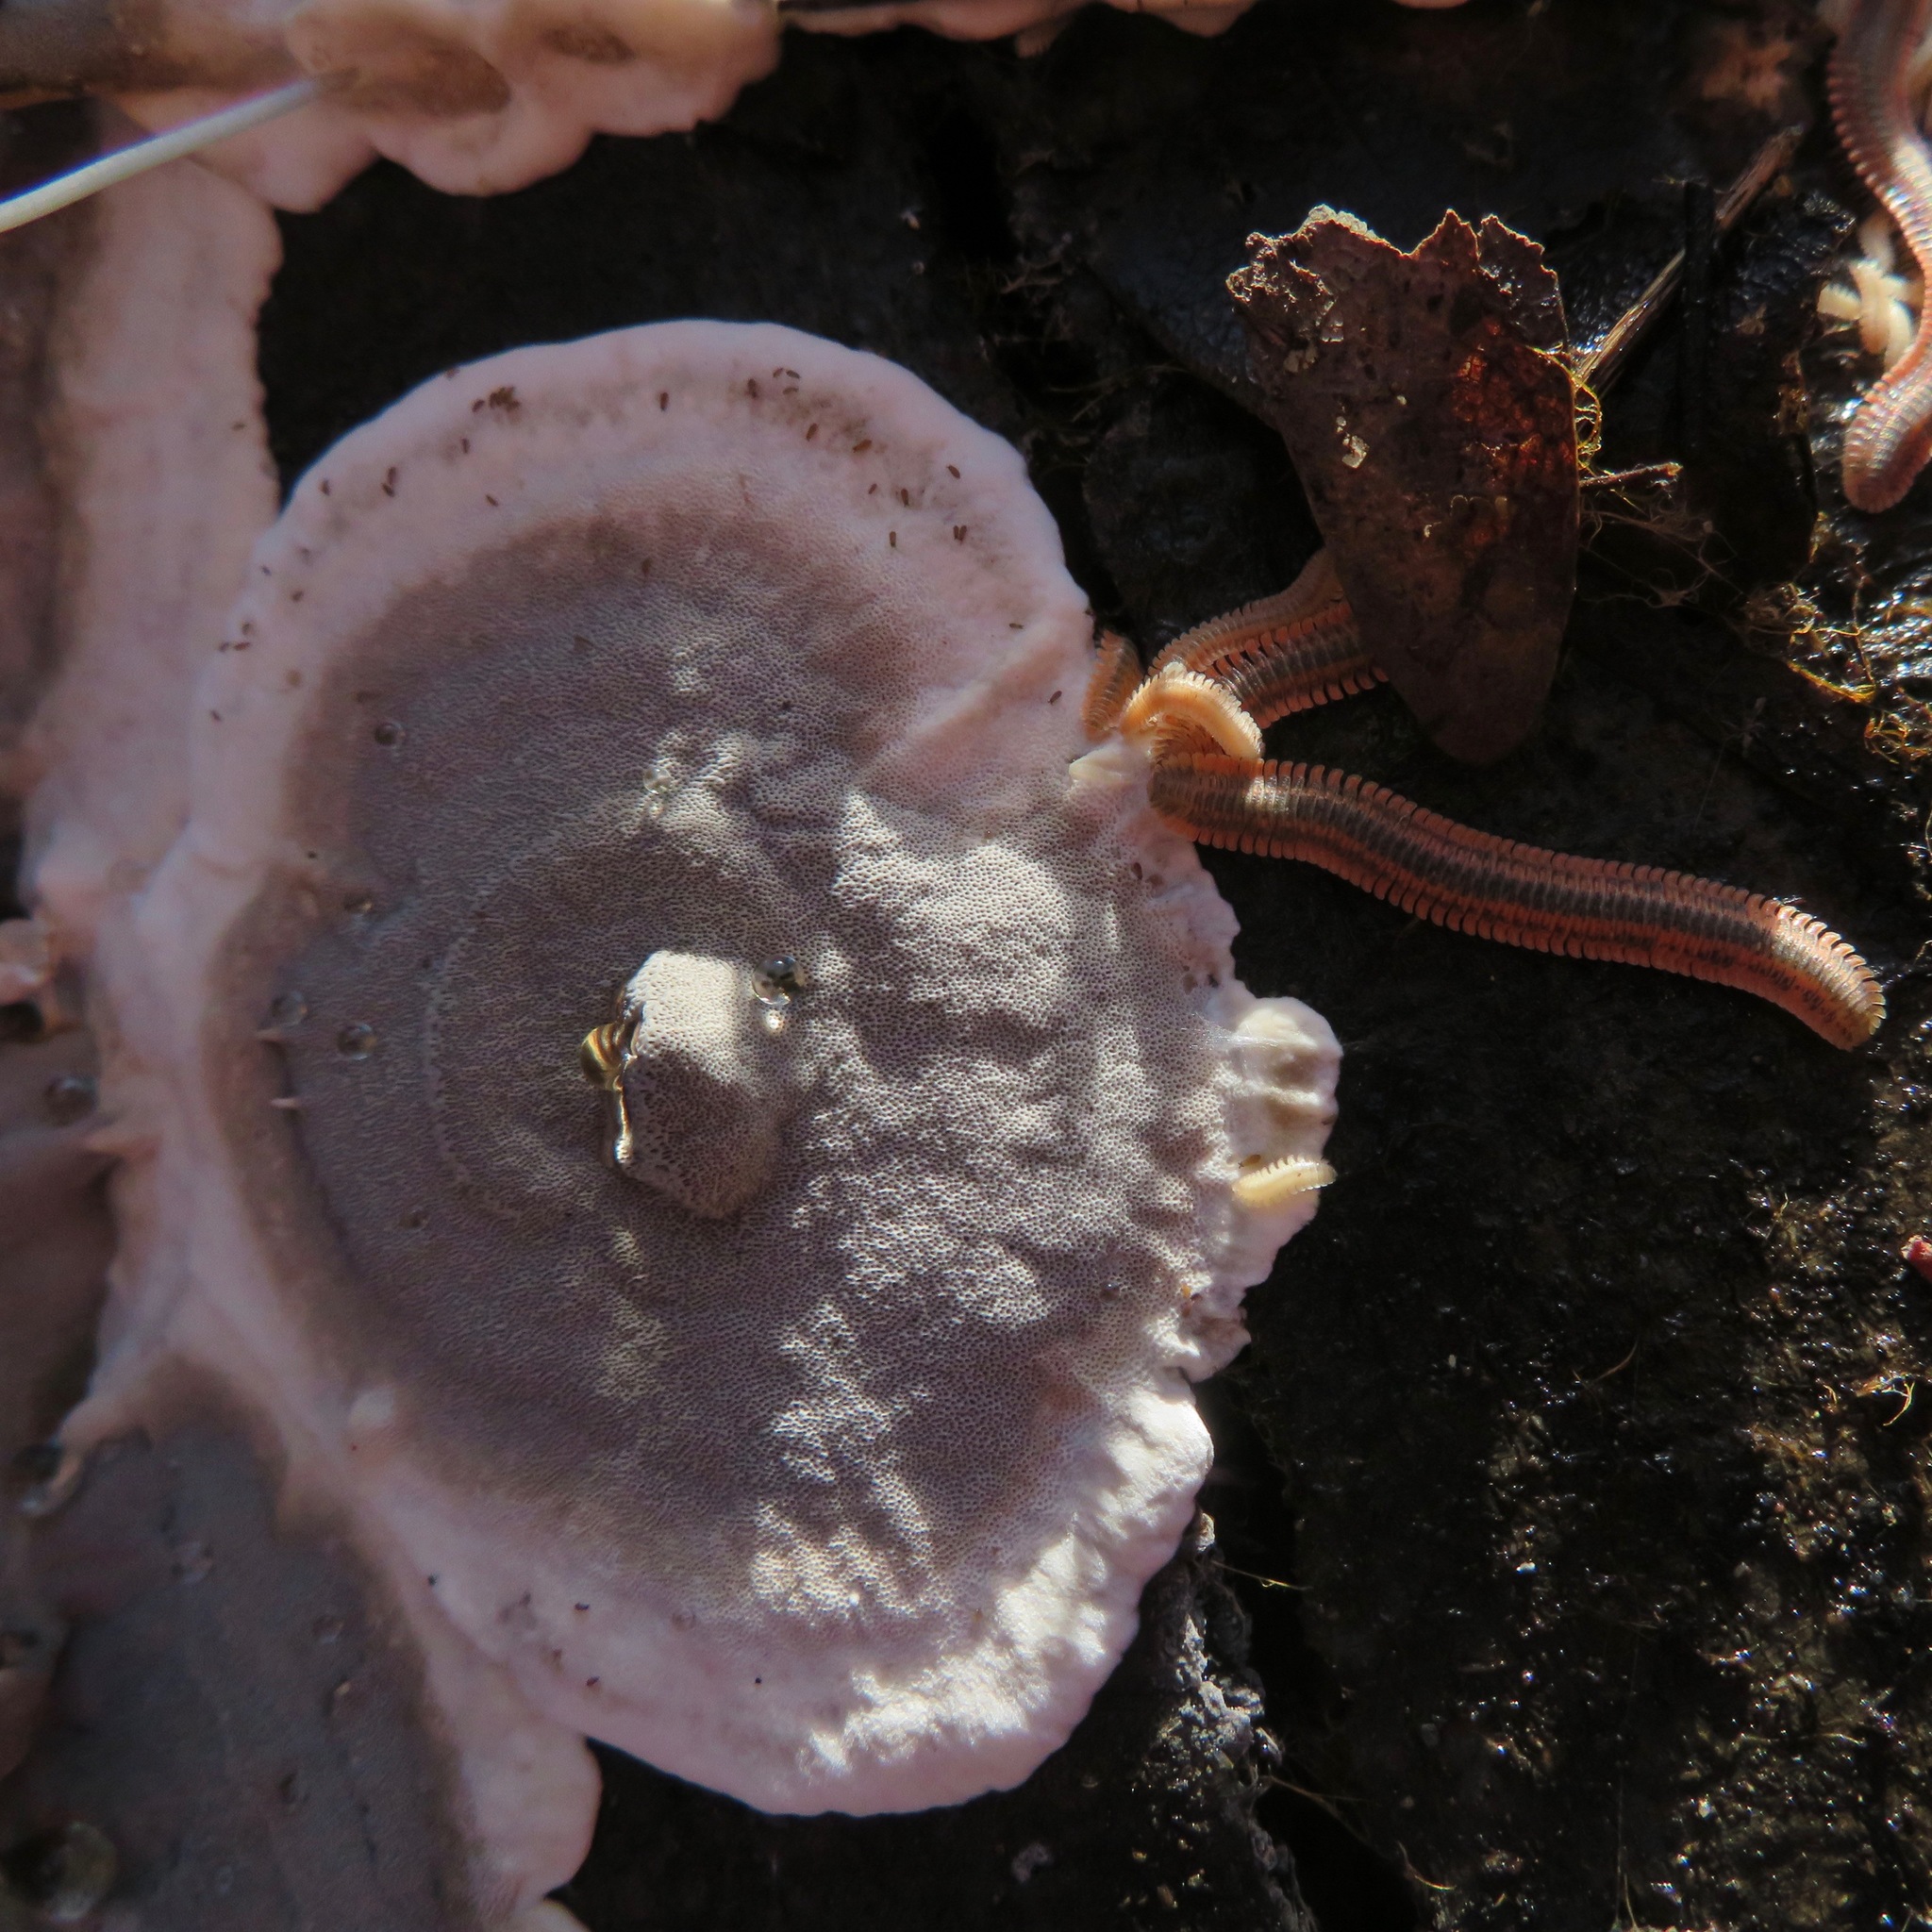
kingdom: Animalia
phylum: Arthropoda
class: Diplopoda
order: Platydesmida
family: Andrognathidae
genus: Brachycybe
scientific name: Brachycybe producta
